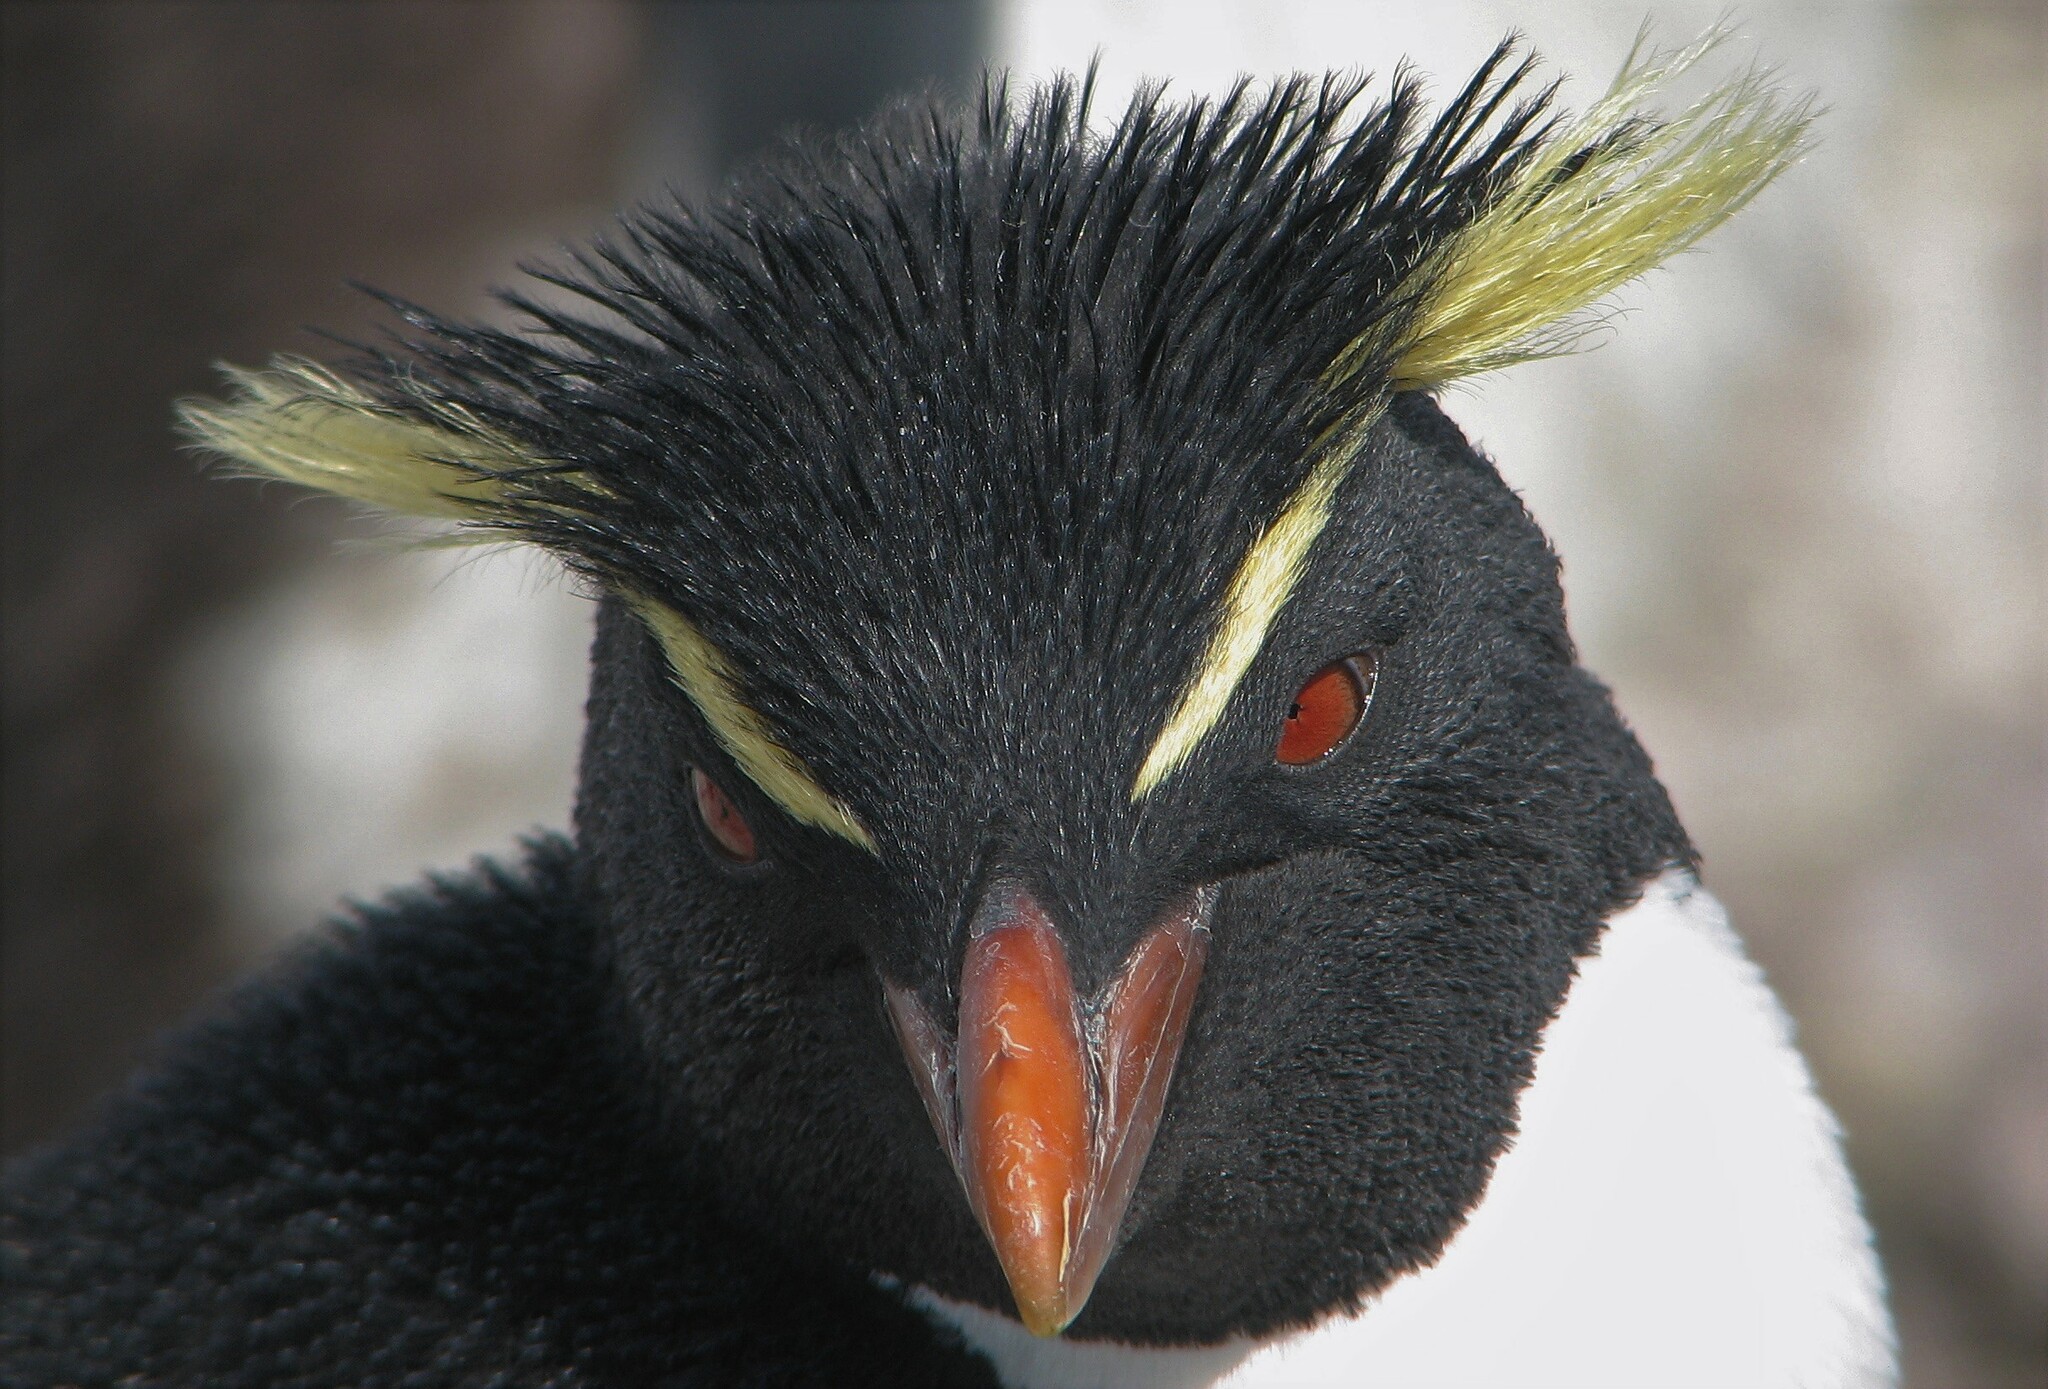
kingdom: Animalia
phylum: Chordata
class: Aves
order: Sphenisciformes
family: Spheniscidae
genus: Eudyptes
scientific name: Eudyptes chrysocome
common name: Southern rockhopper penguin
